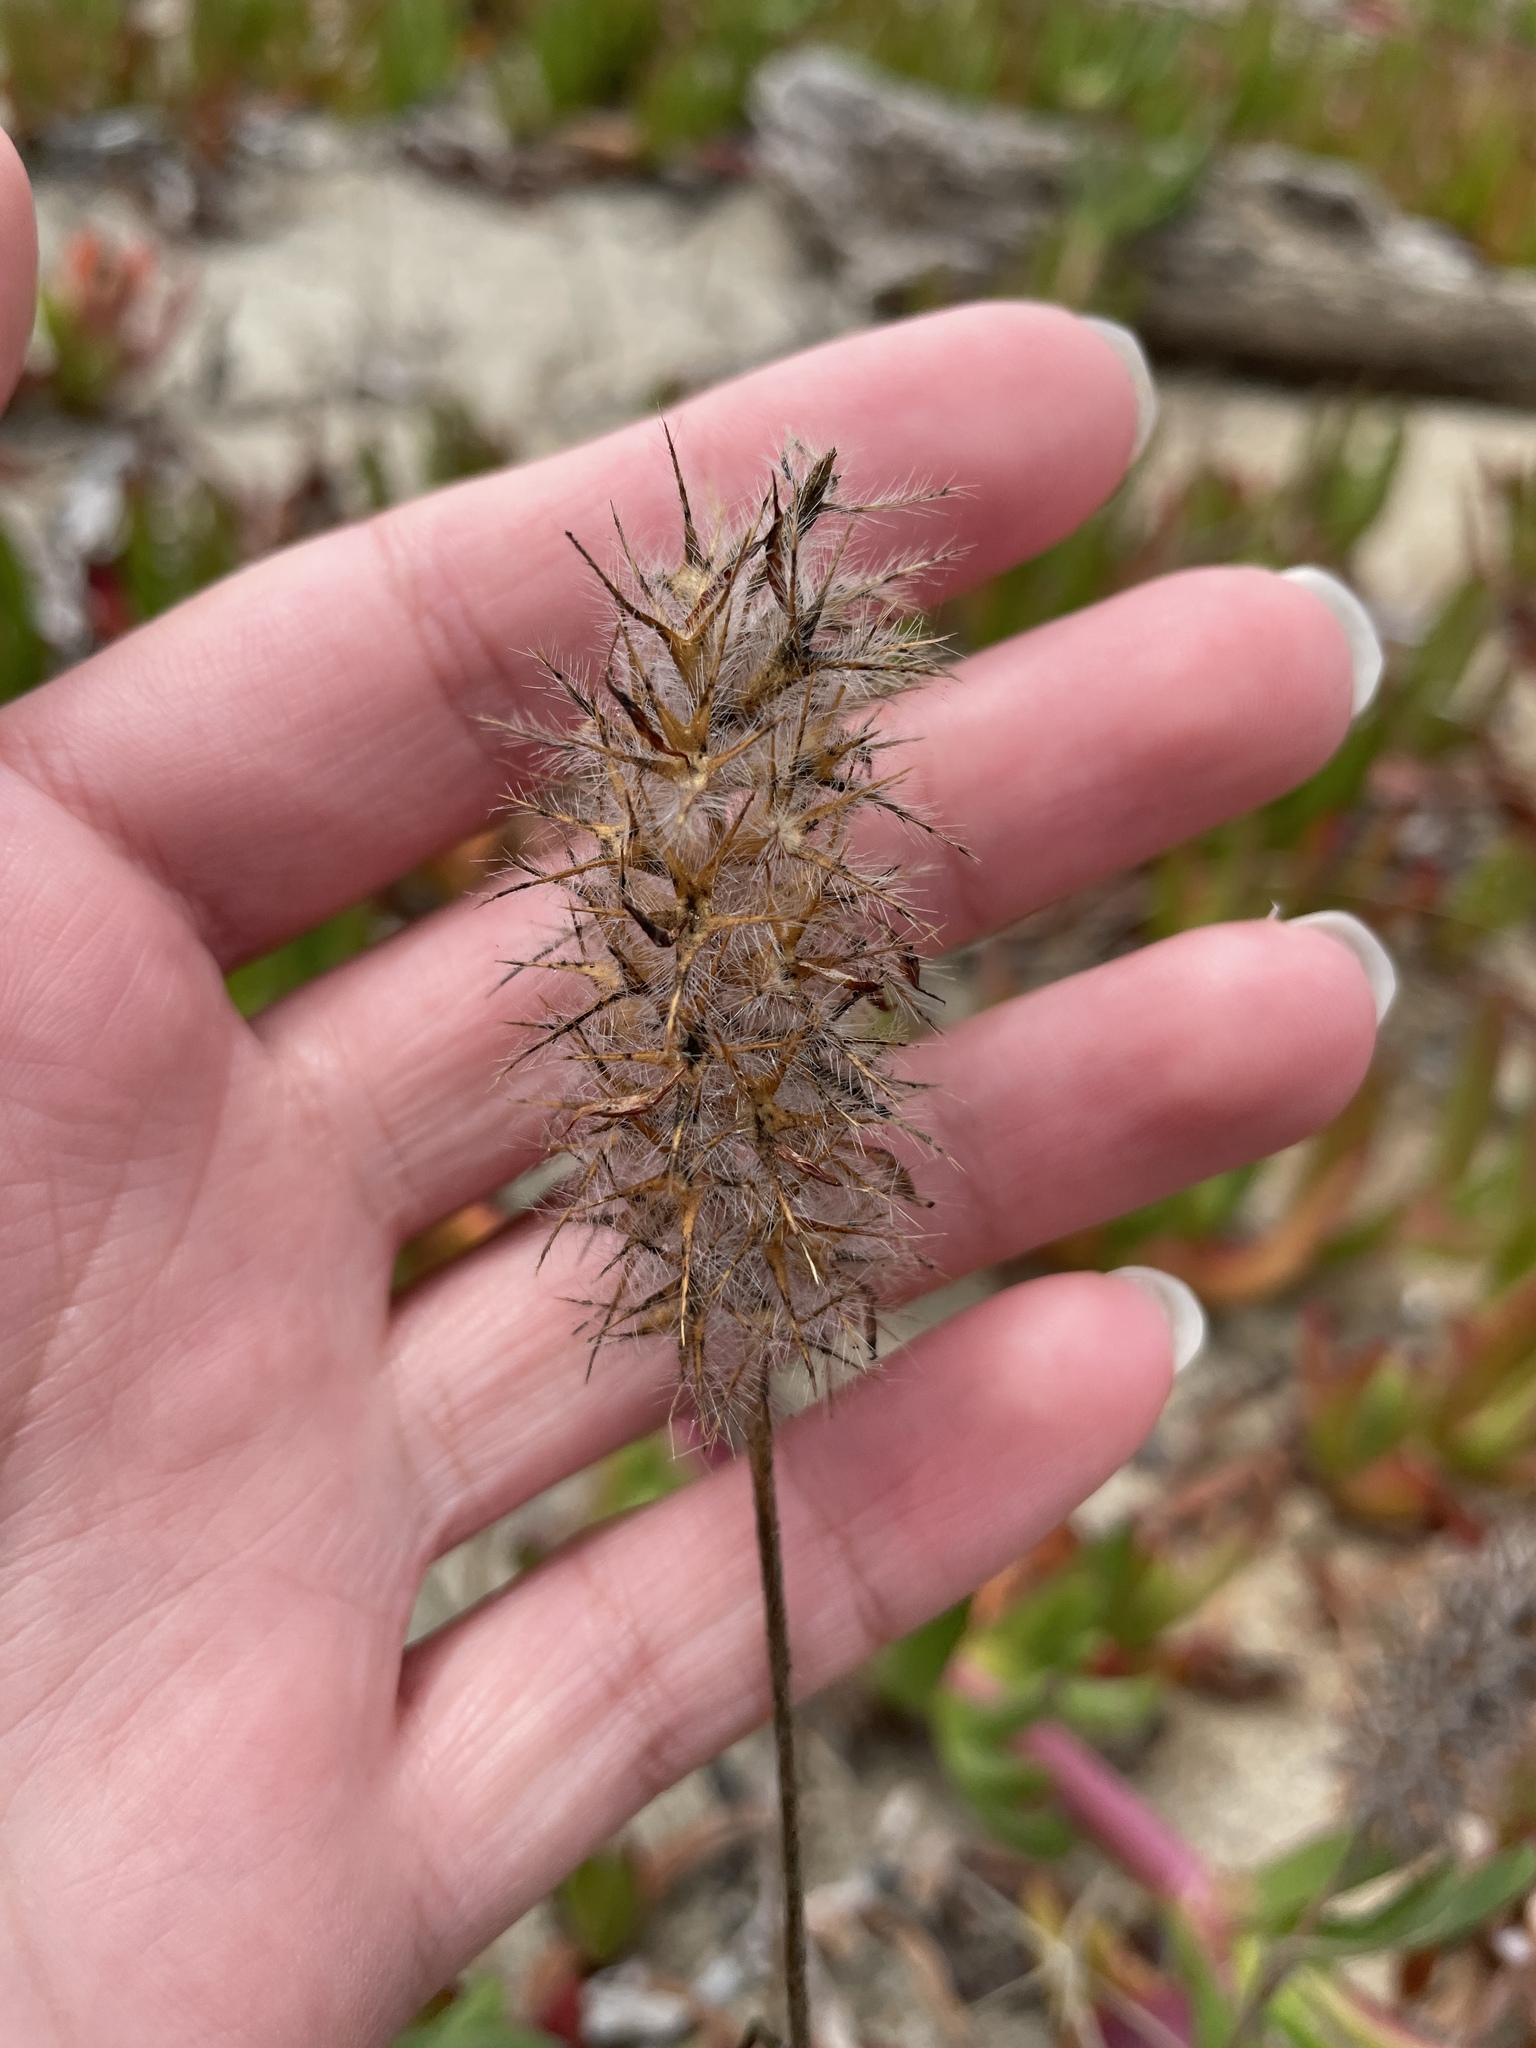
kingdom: Plantae
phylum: Tracheophyta
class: Magnoliopsida
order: Fabales
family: Fabaceae
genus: Trifolium
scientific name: Trifolium angustifolium
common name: Narrow clover
